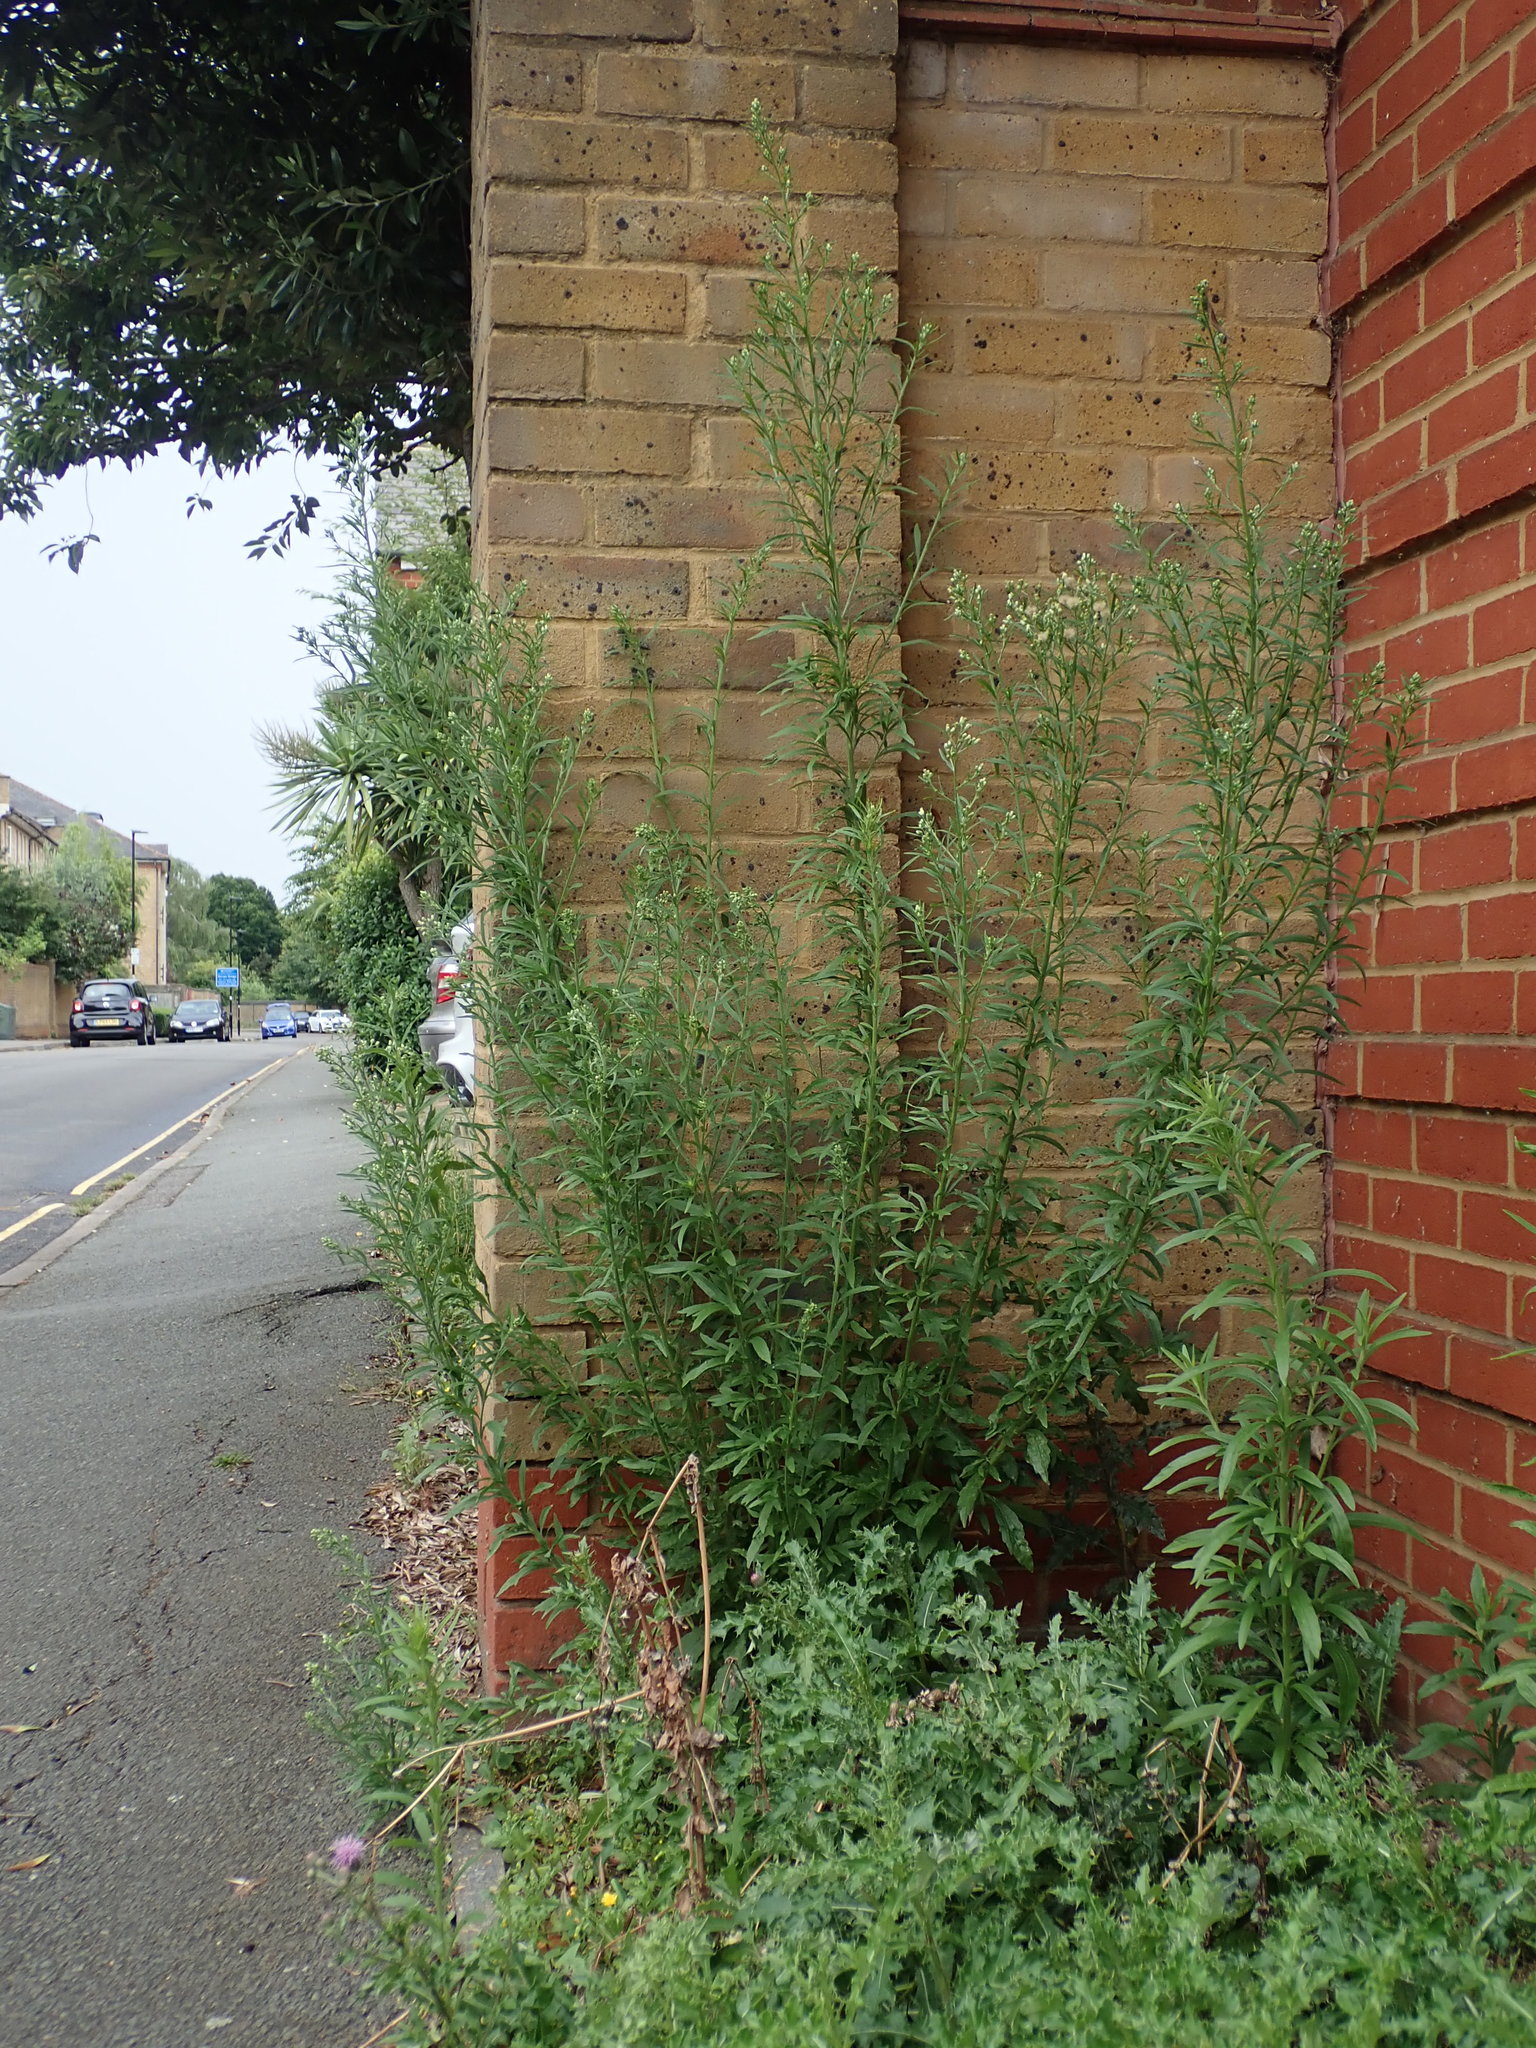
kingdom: Plantae
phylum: Tracheophyta
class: Magnoliopsida
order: Asterales
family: Asteraceae
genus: Erigeron
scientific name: Erigeron sumatrensis
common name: Daisy
